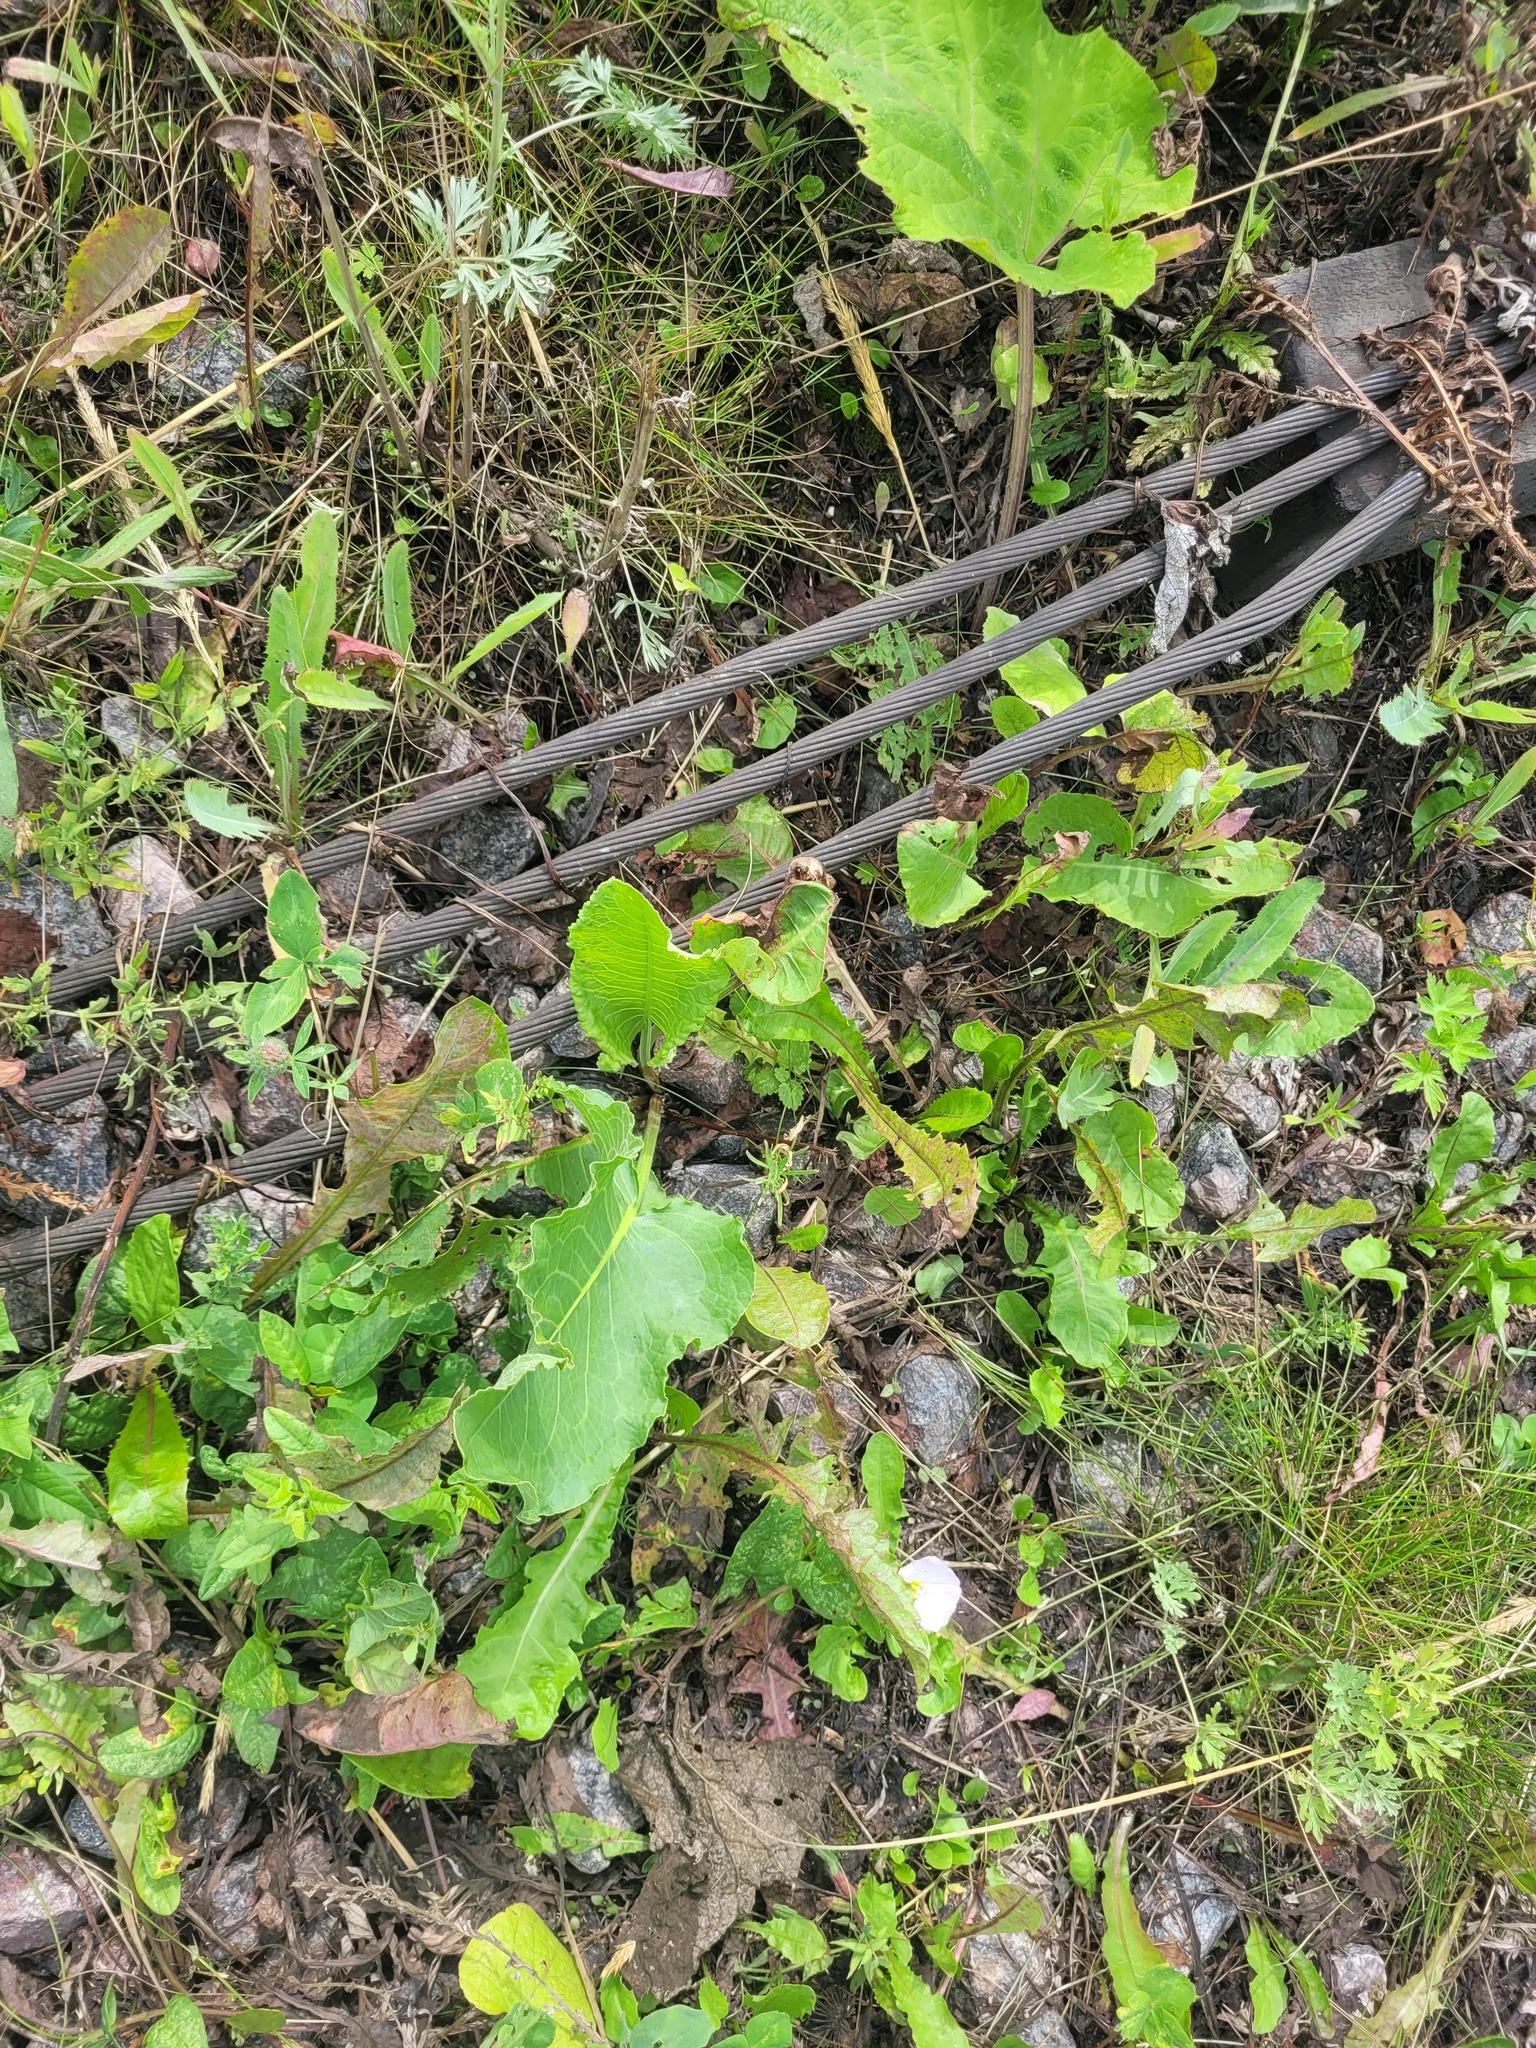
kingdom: Plantae
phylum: Tracheophyta
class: Magnoliopsida
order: Caryophyllales
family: Polygonaceae
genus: Rumex
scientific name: Rumex confertus
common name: Russian dock
